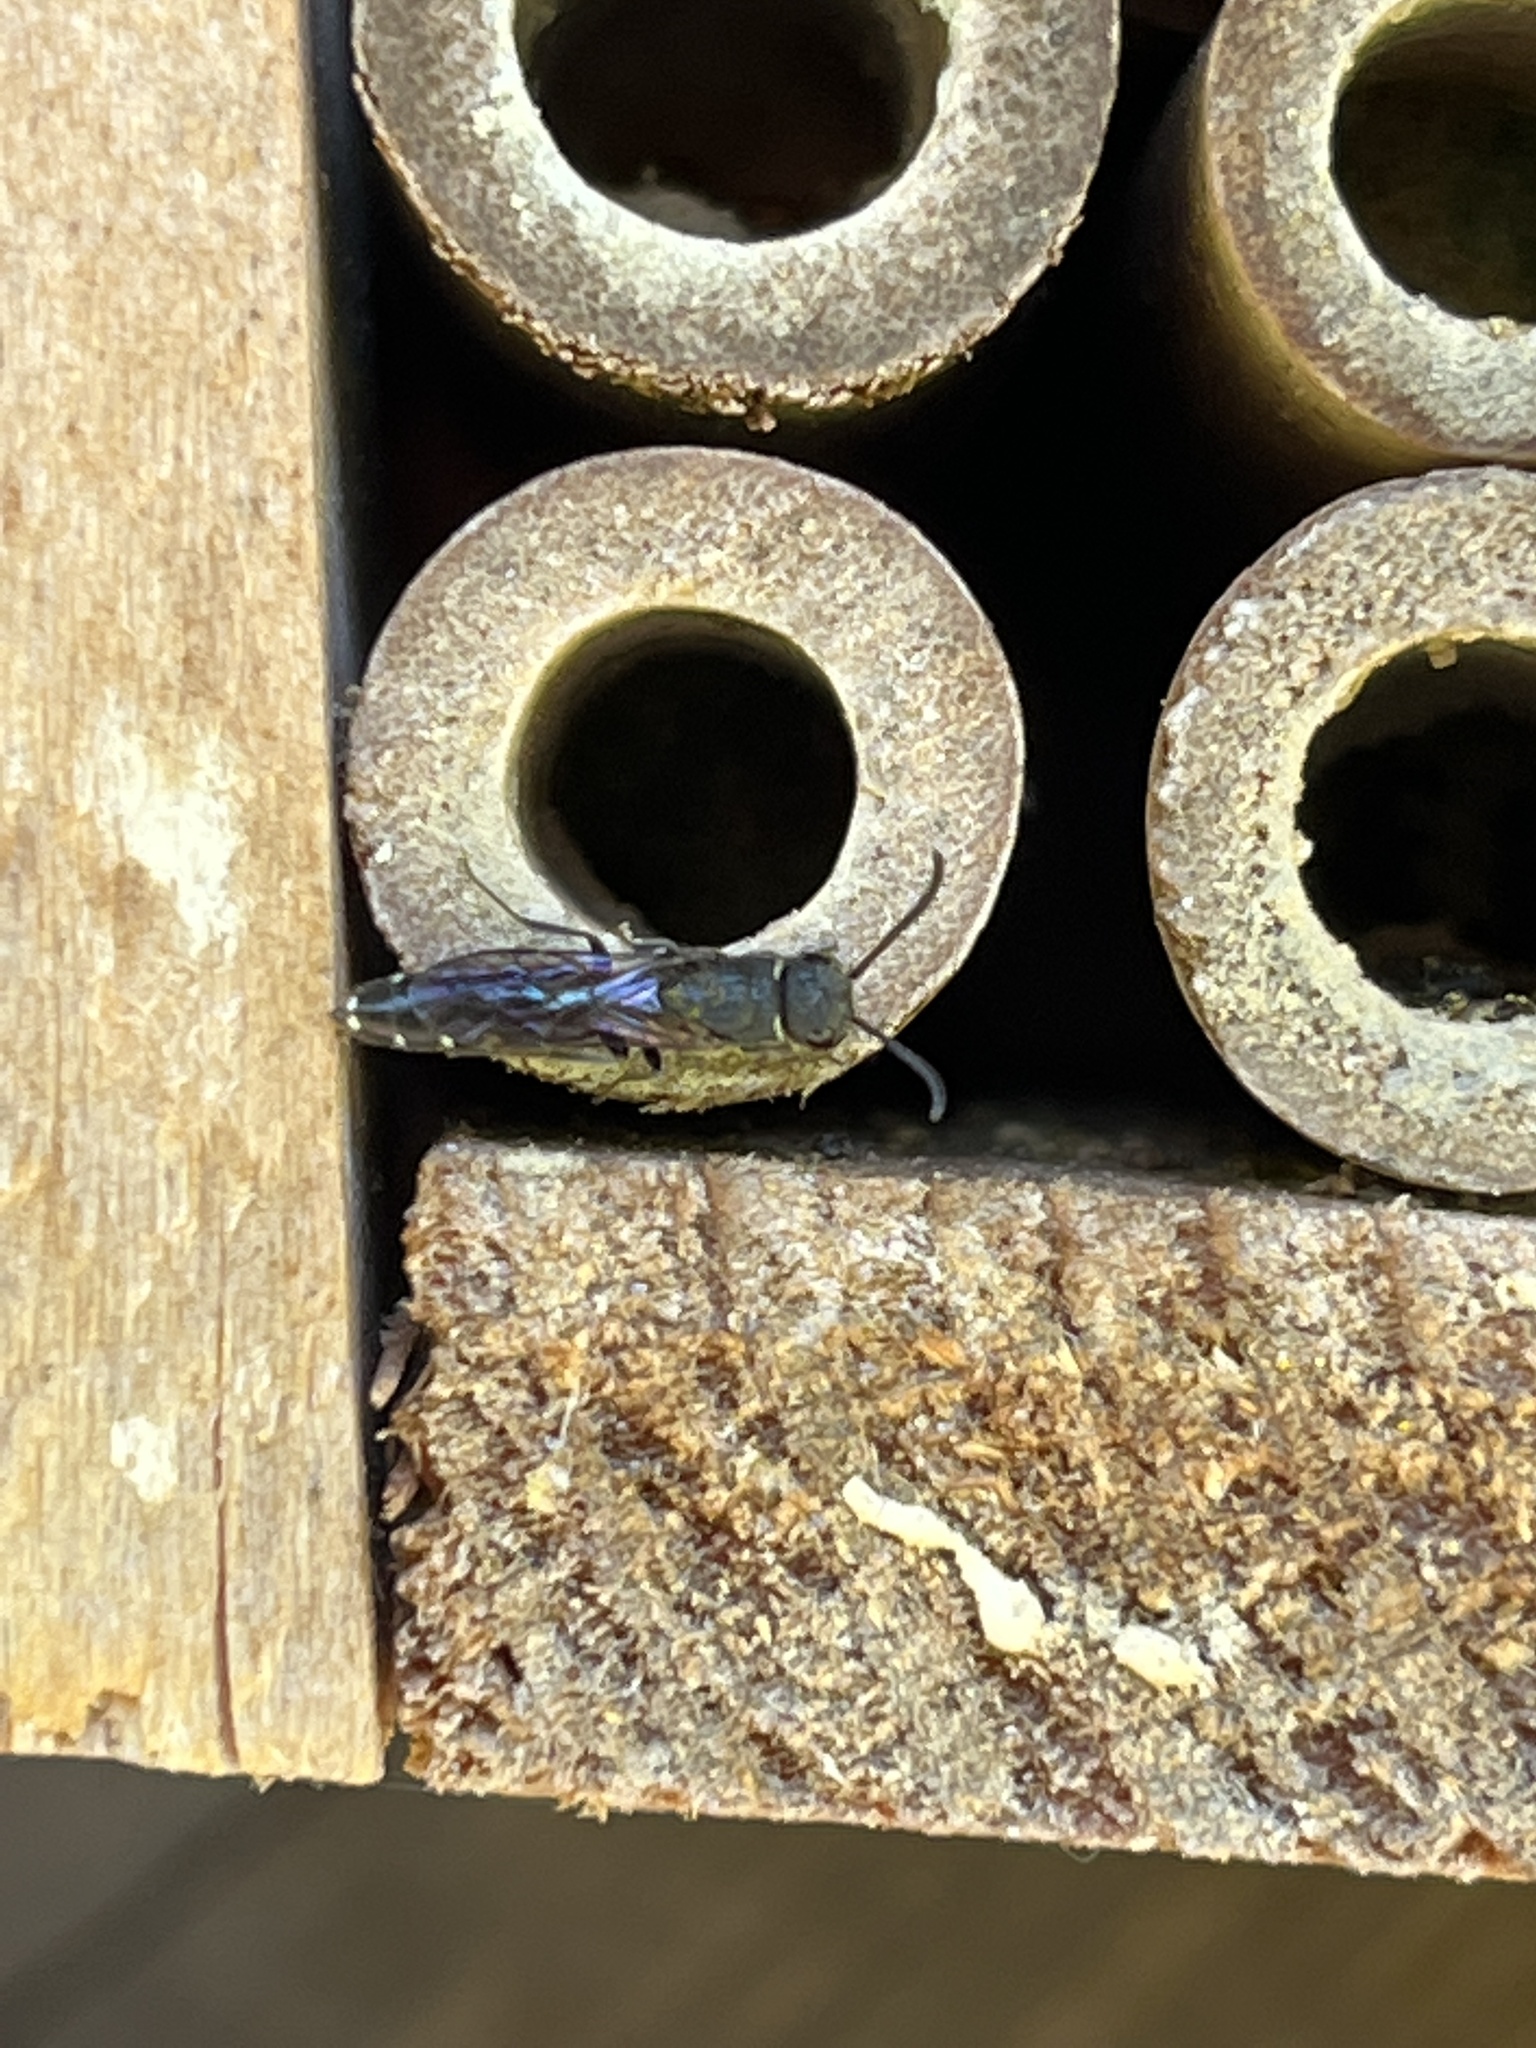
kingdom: Animalia
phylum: Arthropoda
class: Insecta
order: Hymenoptera
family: Sapygidae
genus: Sapygina
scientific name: Sapygina decemguttata
